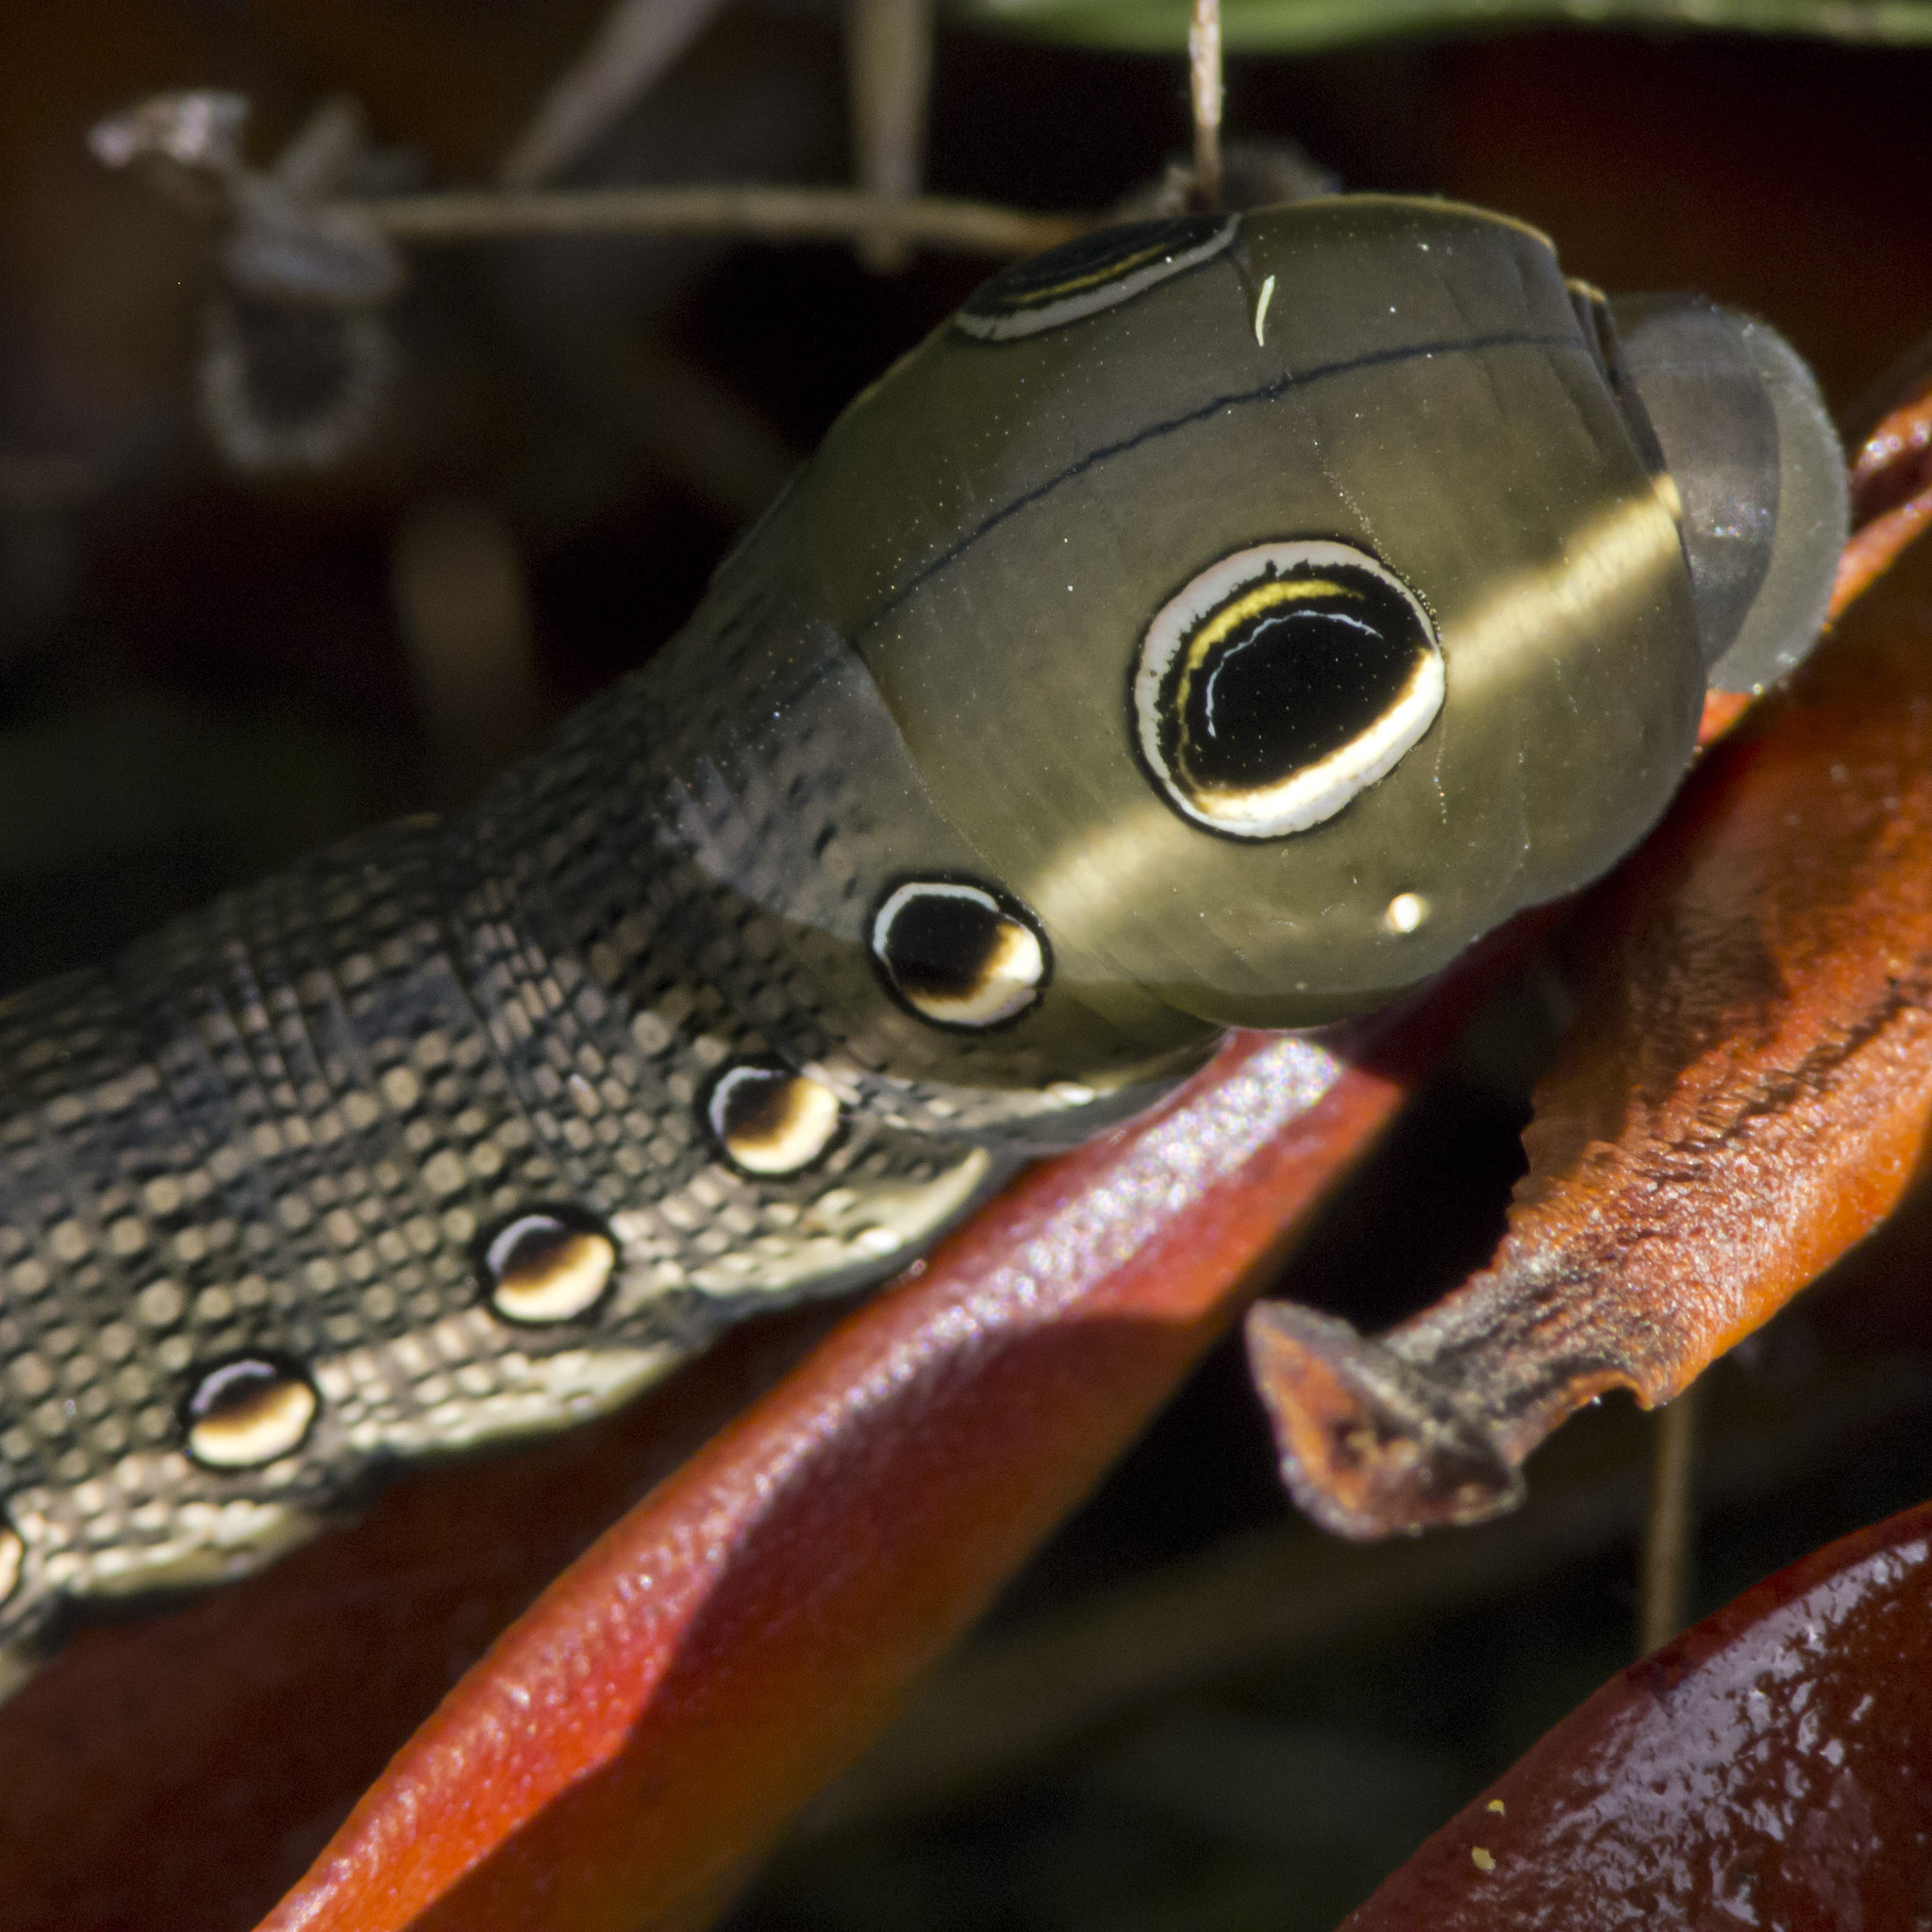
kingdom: Animalia
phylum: Arthropoda
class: Insecta
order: Lepidoptera
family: Sphingidae
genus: Xylophanes
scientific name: Xylophanes tersa
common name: Tersa sphinx
